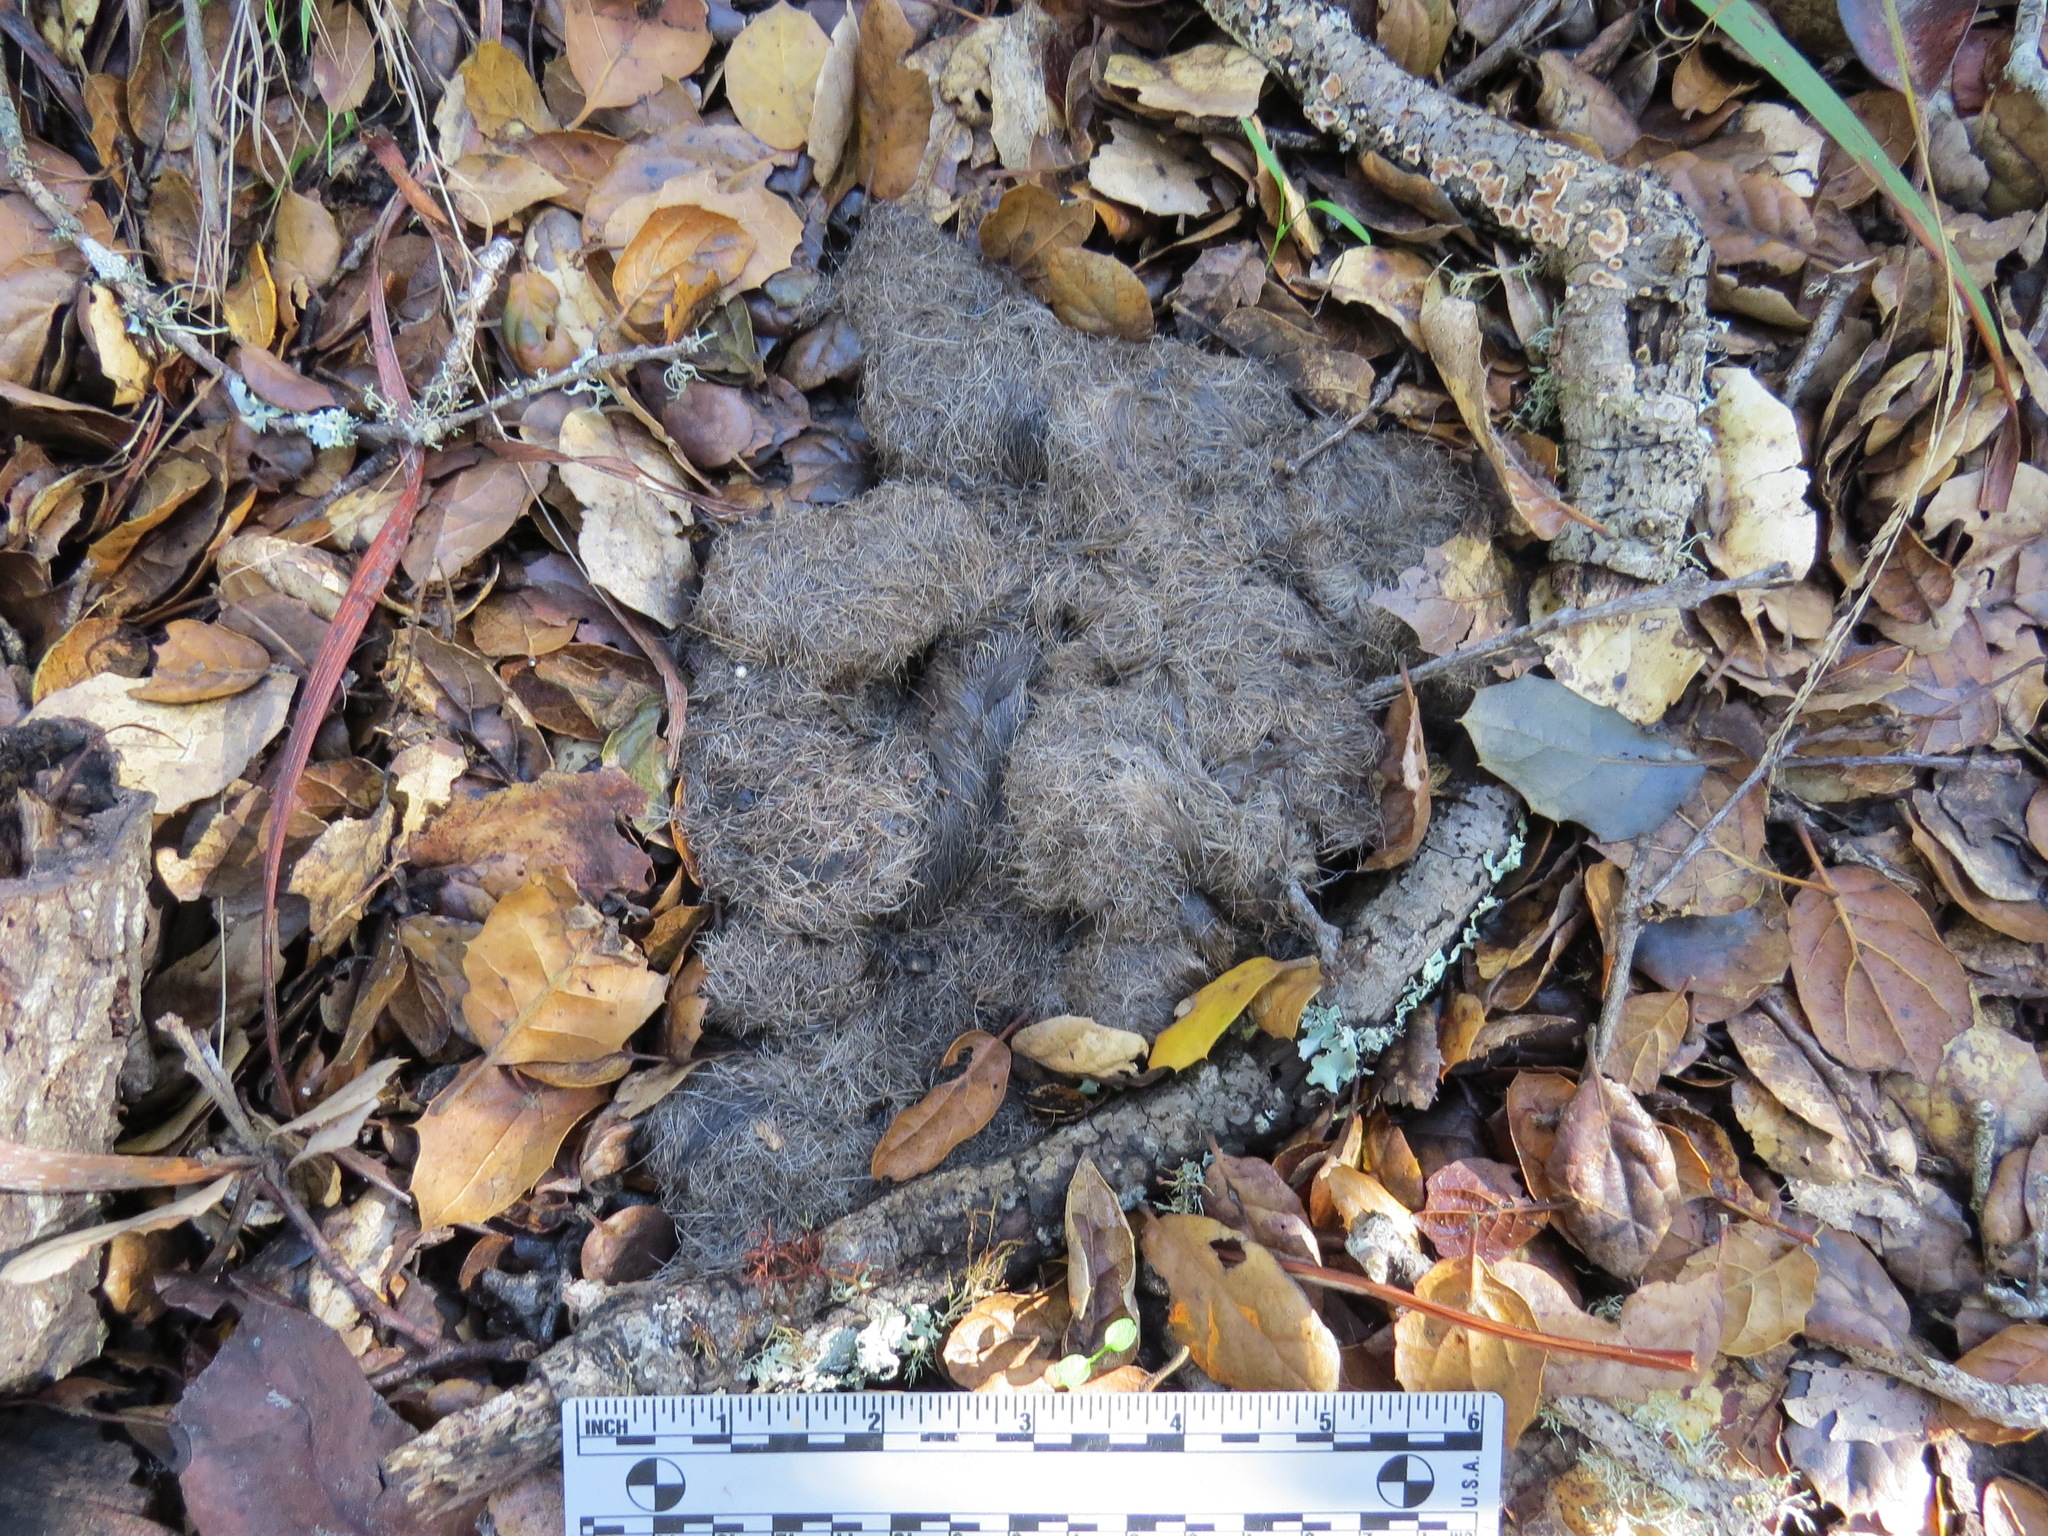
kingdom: Animalia
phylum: Chordata
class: Mammalia
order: Carnivora
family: Felidae
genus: Puma
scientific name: Puma concolor
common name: Puma
